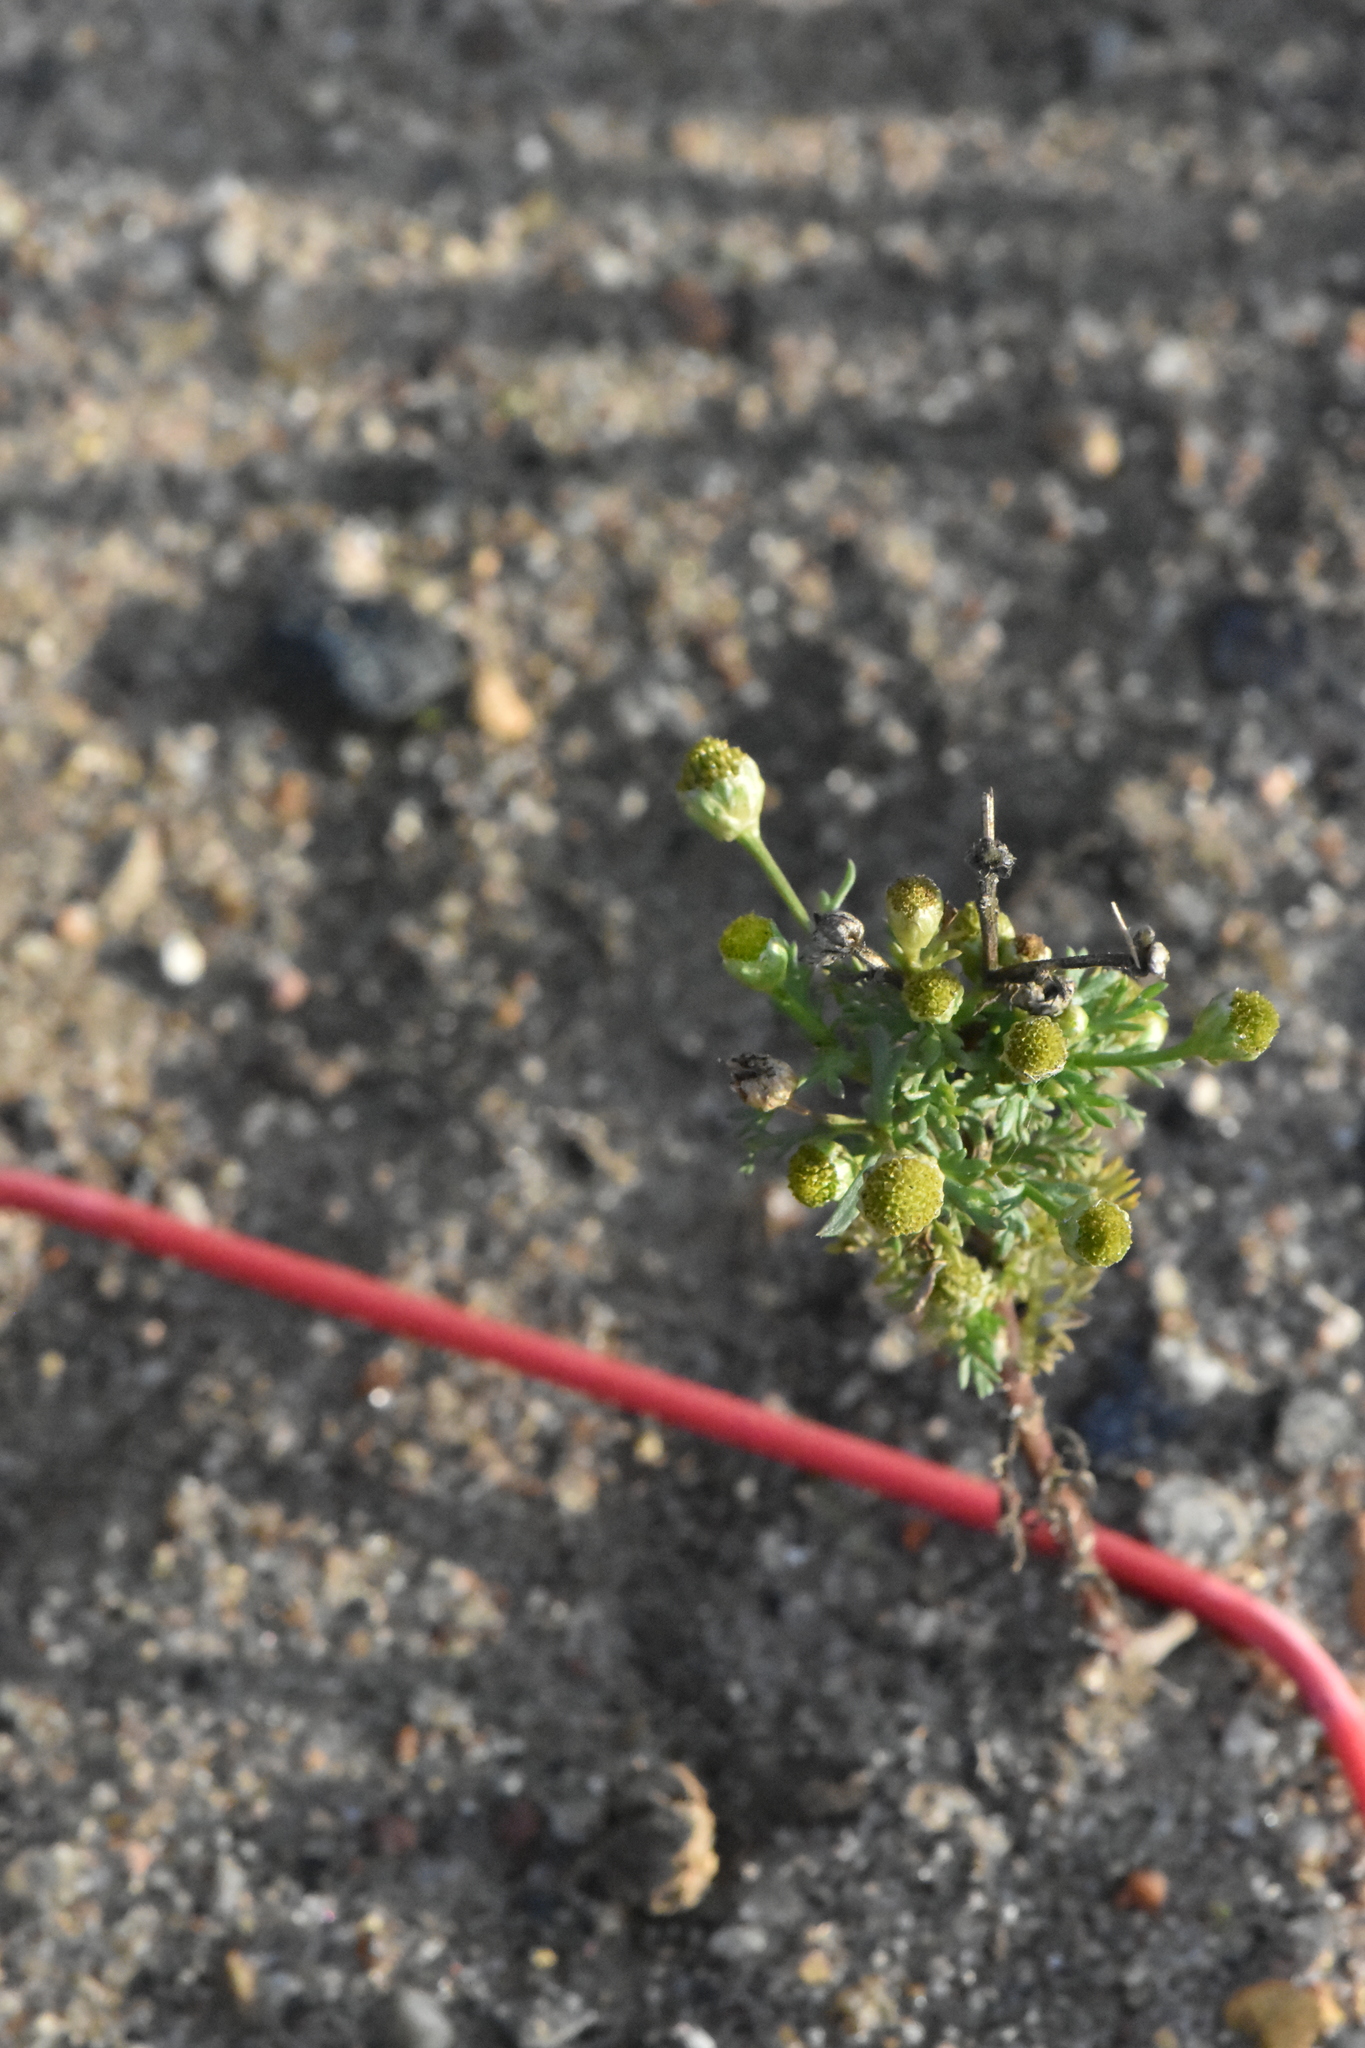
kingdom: Plantae
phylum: Tracheophyta
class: Magnoliopsida
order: Asterales
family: Asteraceae
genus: Matricaria
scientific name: Matricaria discoidea
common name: Disc mayweed
